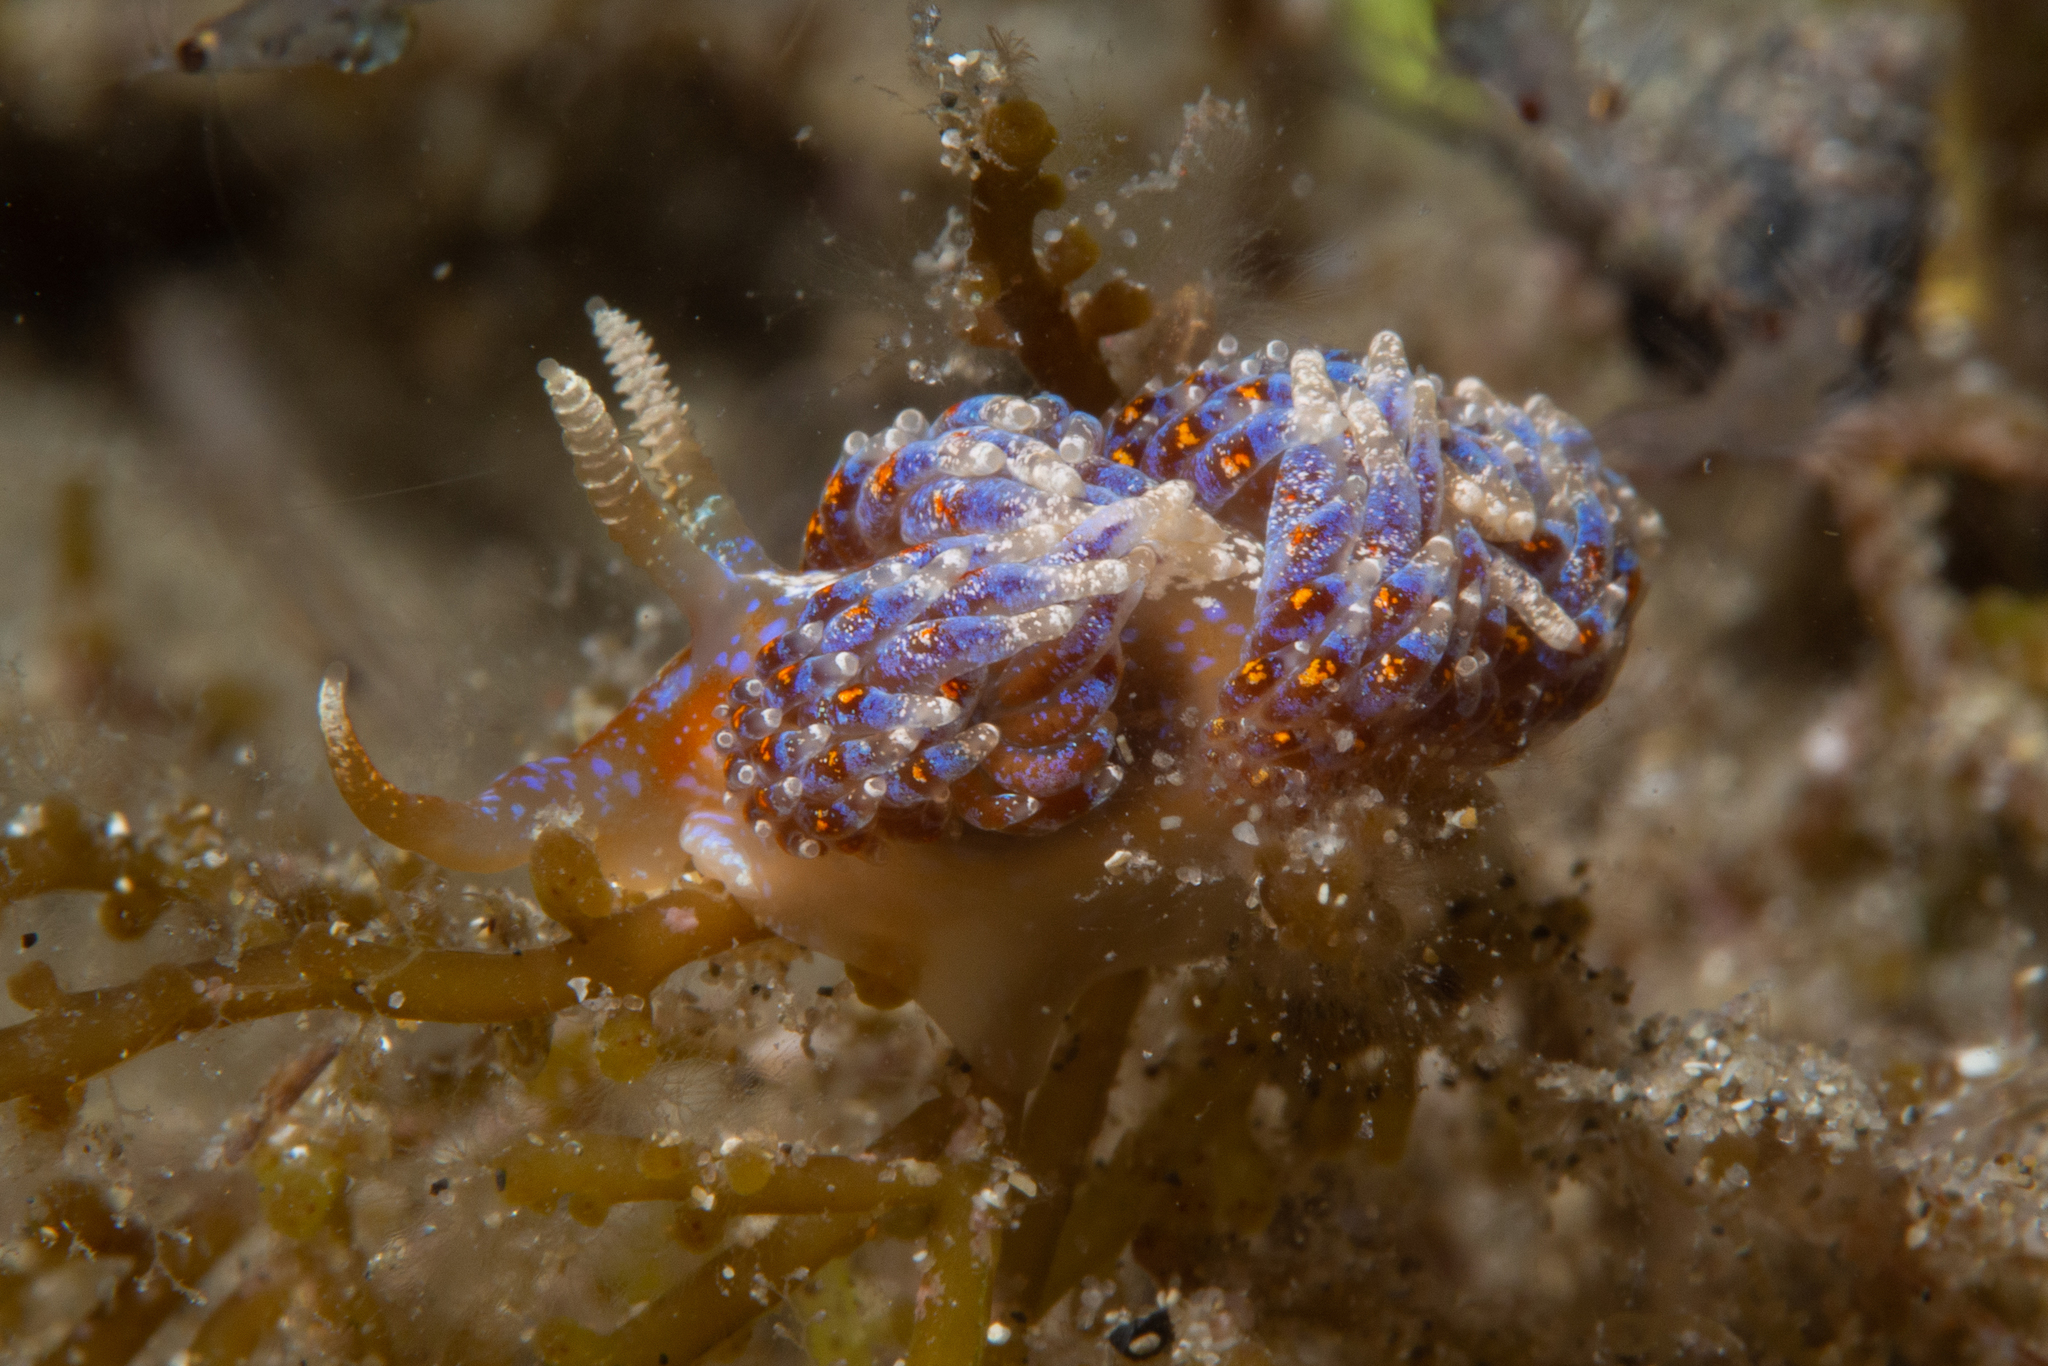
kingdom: Animalia
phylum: Mollusca
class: Gastropoda
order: Nudibranchia
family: Facelinidae
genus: Austraeolis
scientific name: Austraeolis ornata
